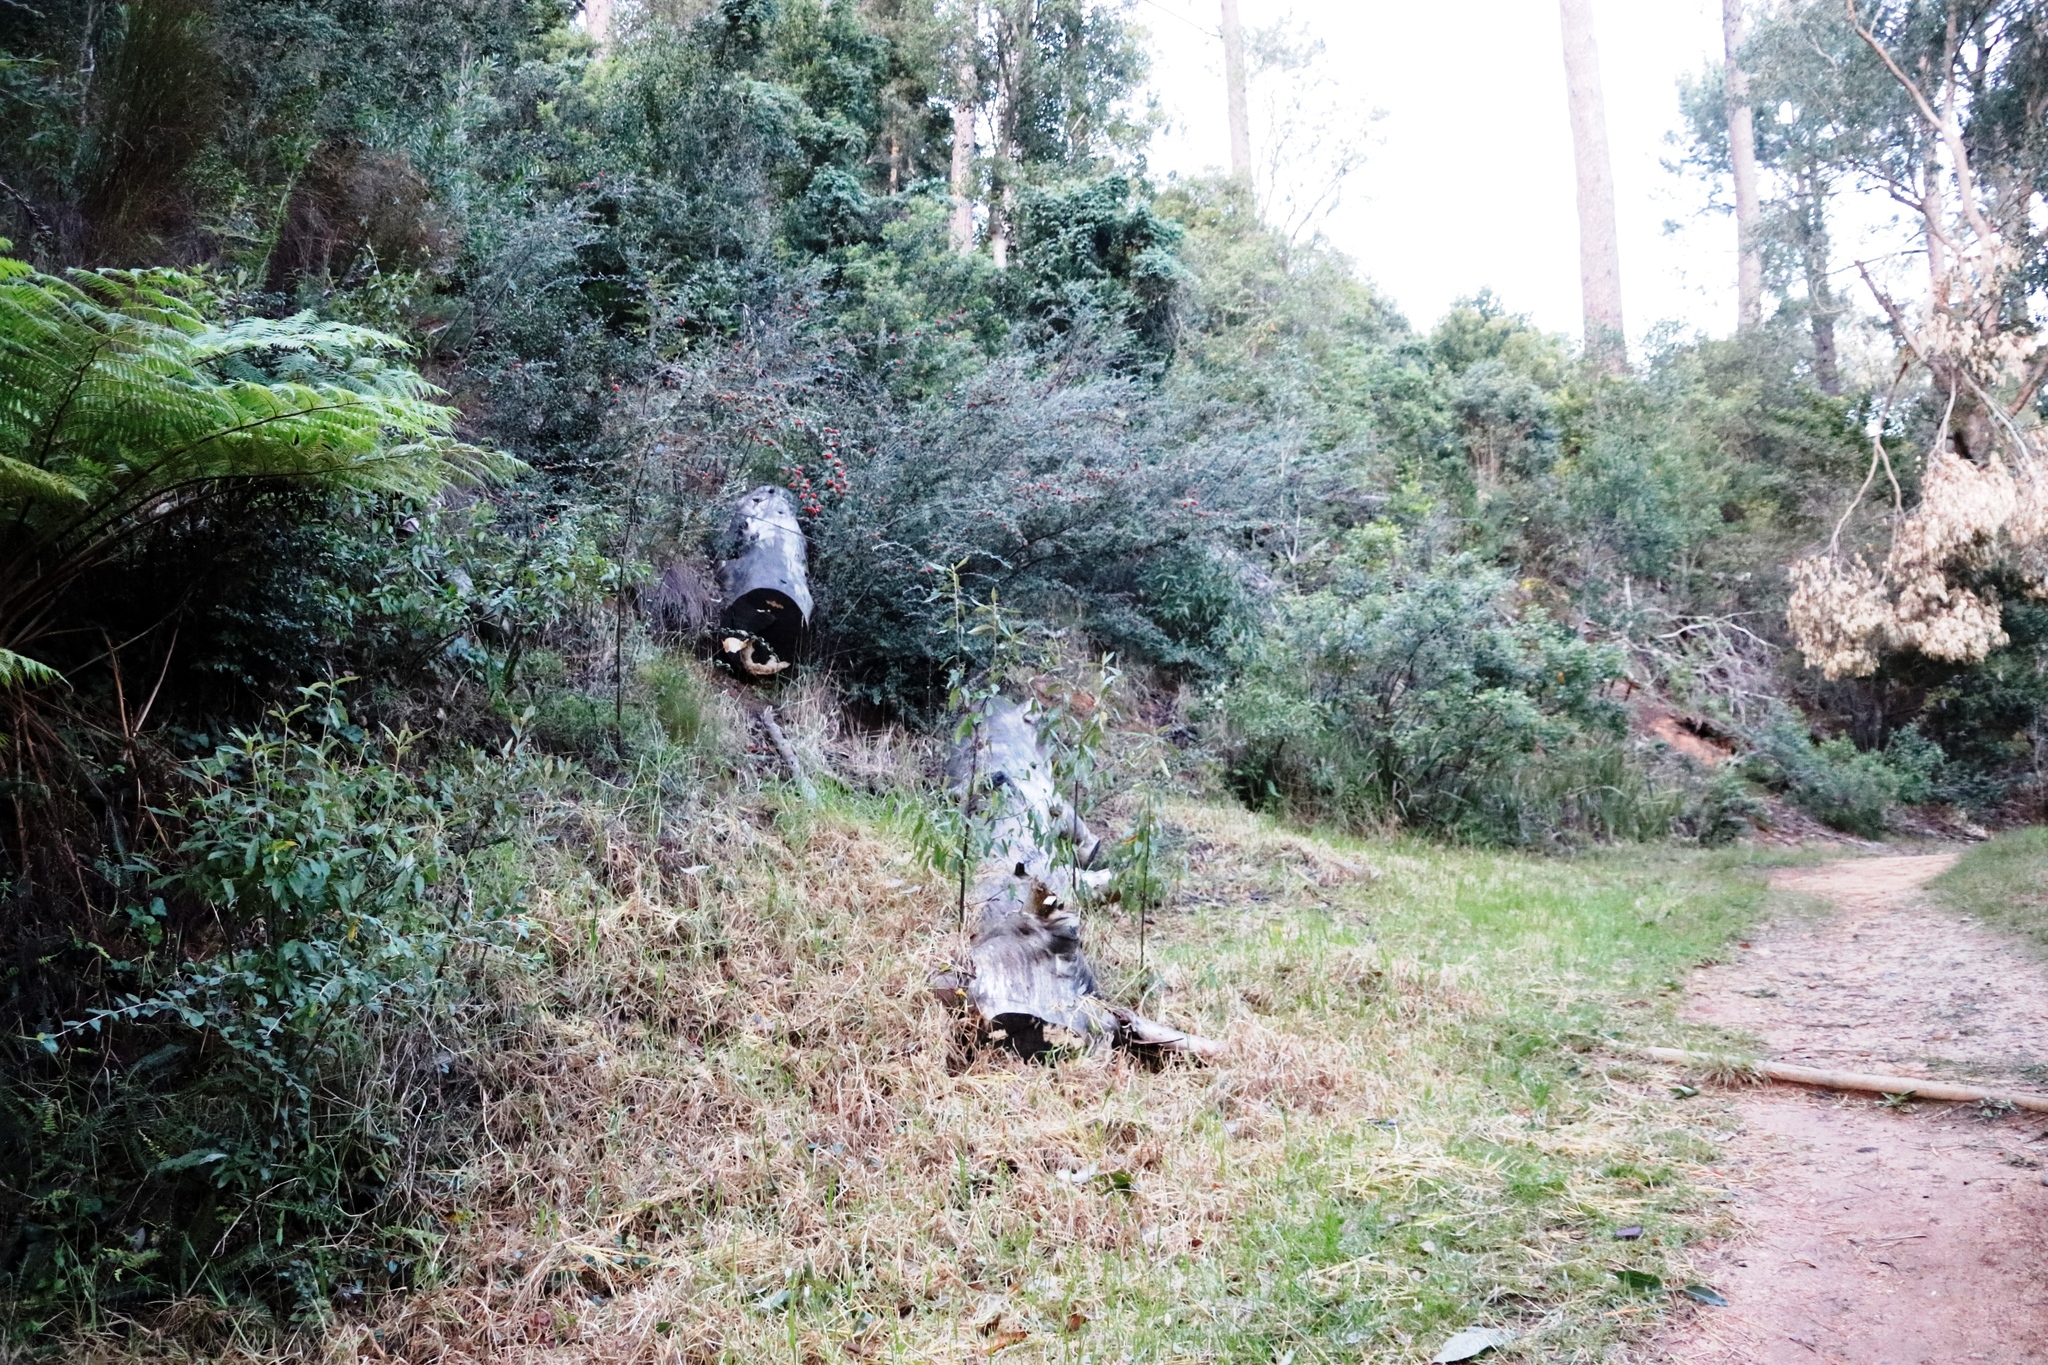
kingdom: Plantae
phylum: Tracheophyta
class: Magnoliopsida
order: Rosales
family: Rosaceae
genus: Cotoneaster
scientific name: Cotoneaster glaucophyllus
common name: Glaucous cotoneaster
